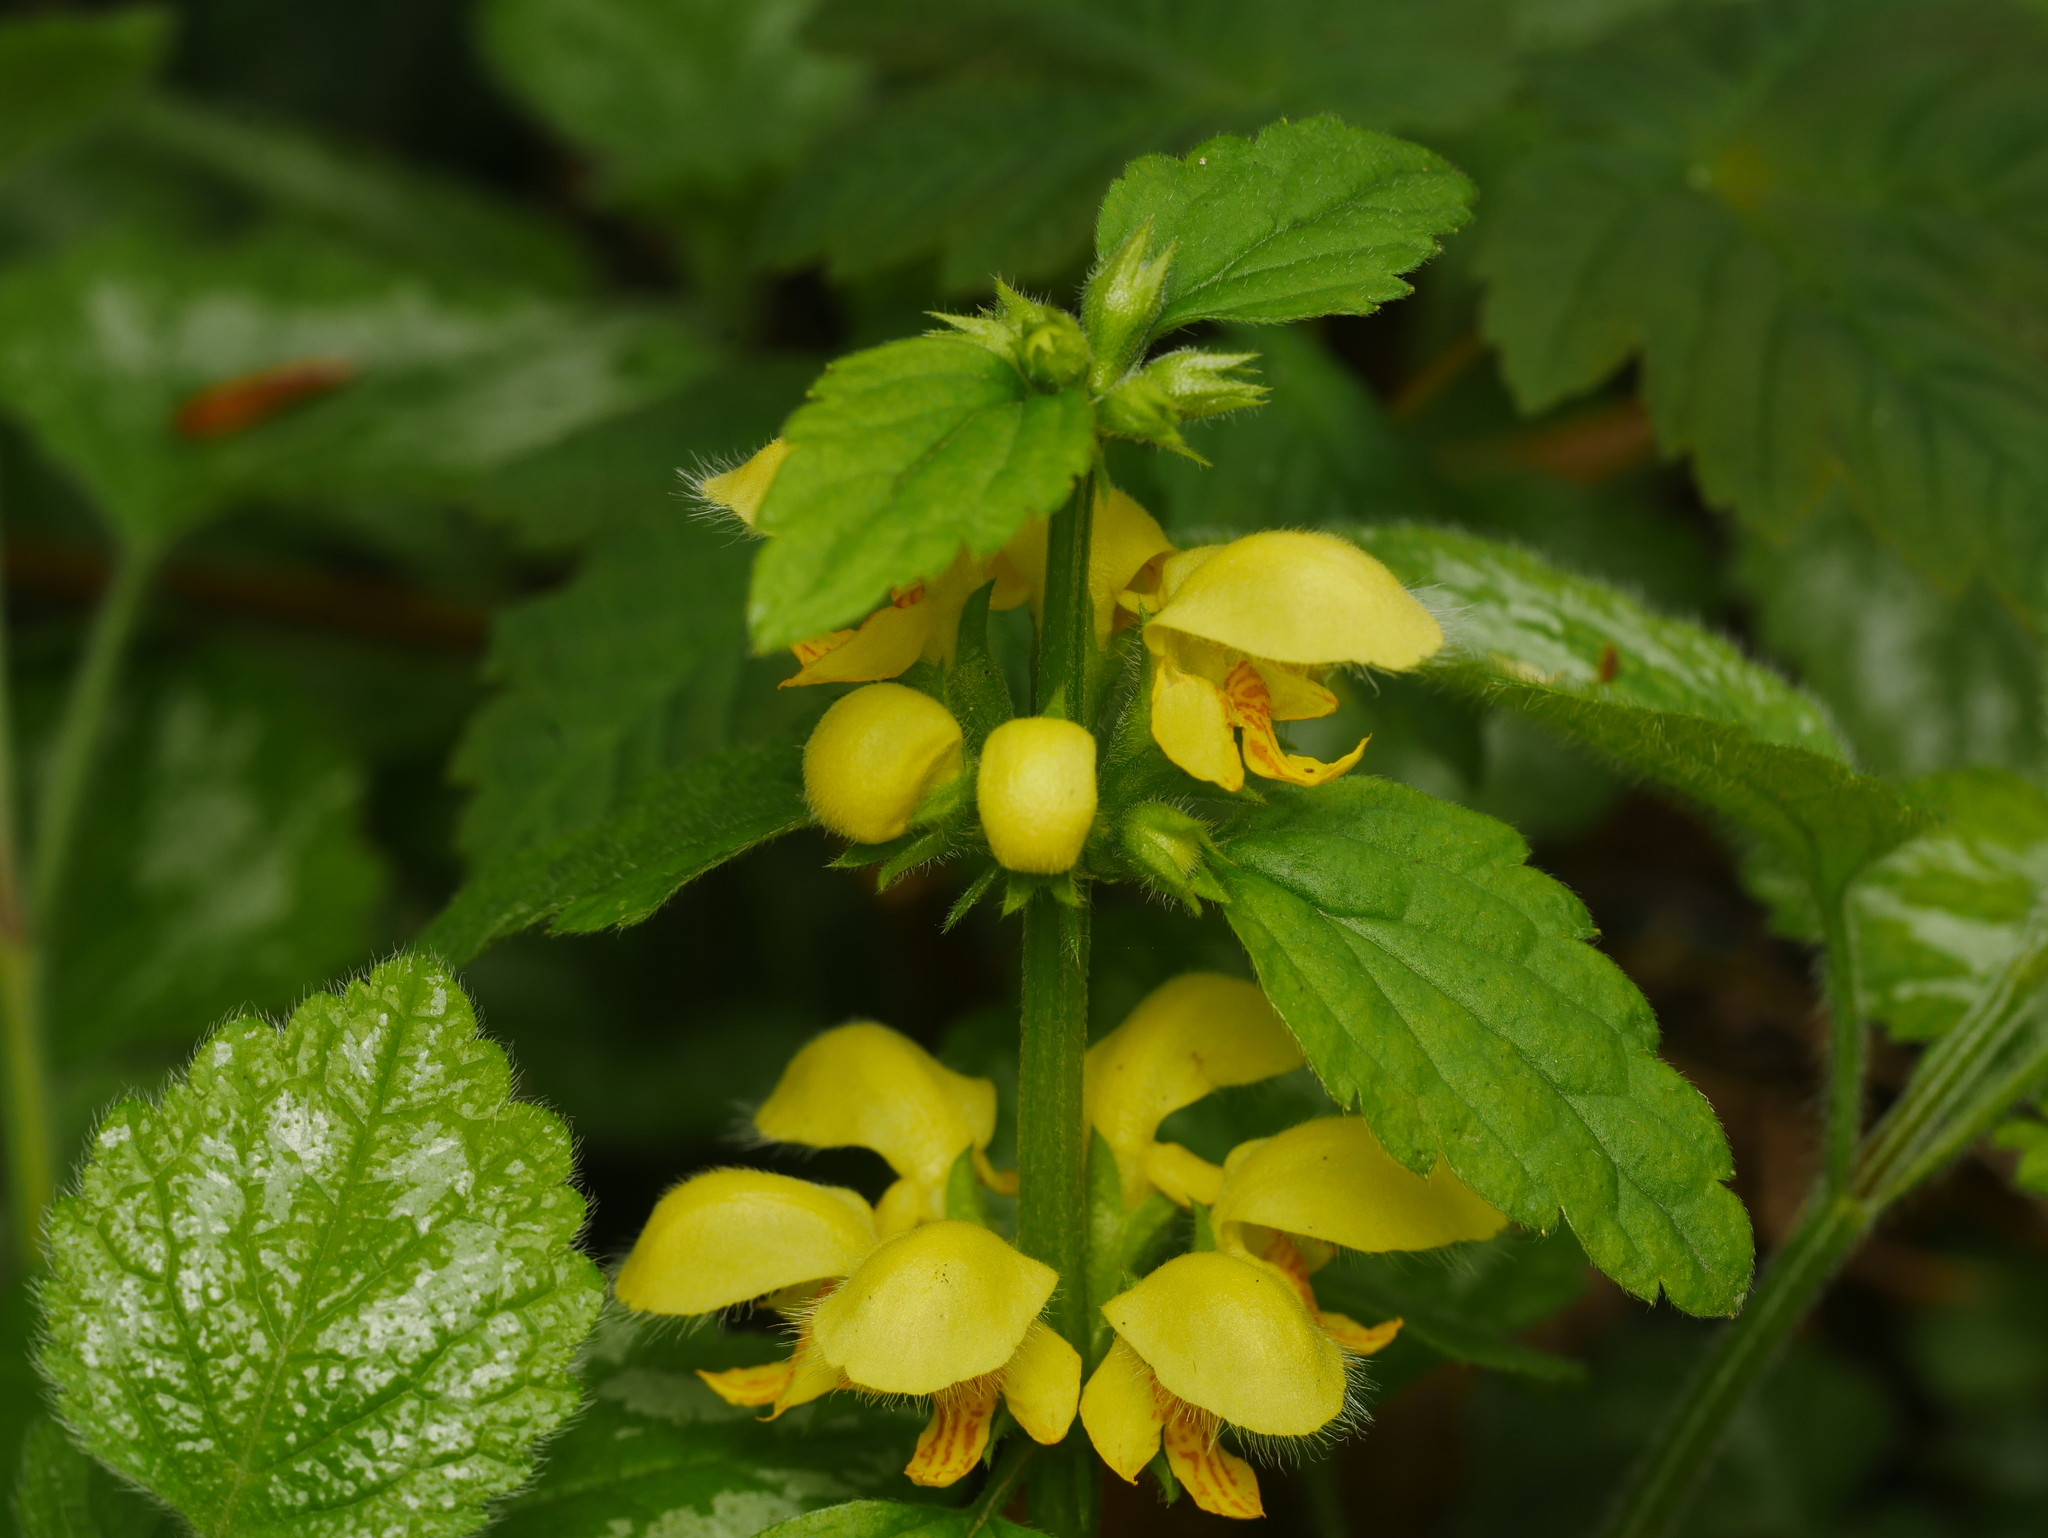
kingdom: Plantae
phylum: Tracheophyta
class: Magnoliopsida
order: Lamiales
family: Lamiaceae
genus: Lamium
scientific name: Lamium galeobdolon
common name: Yellow archangel
